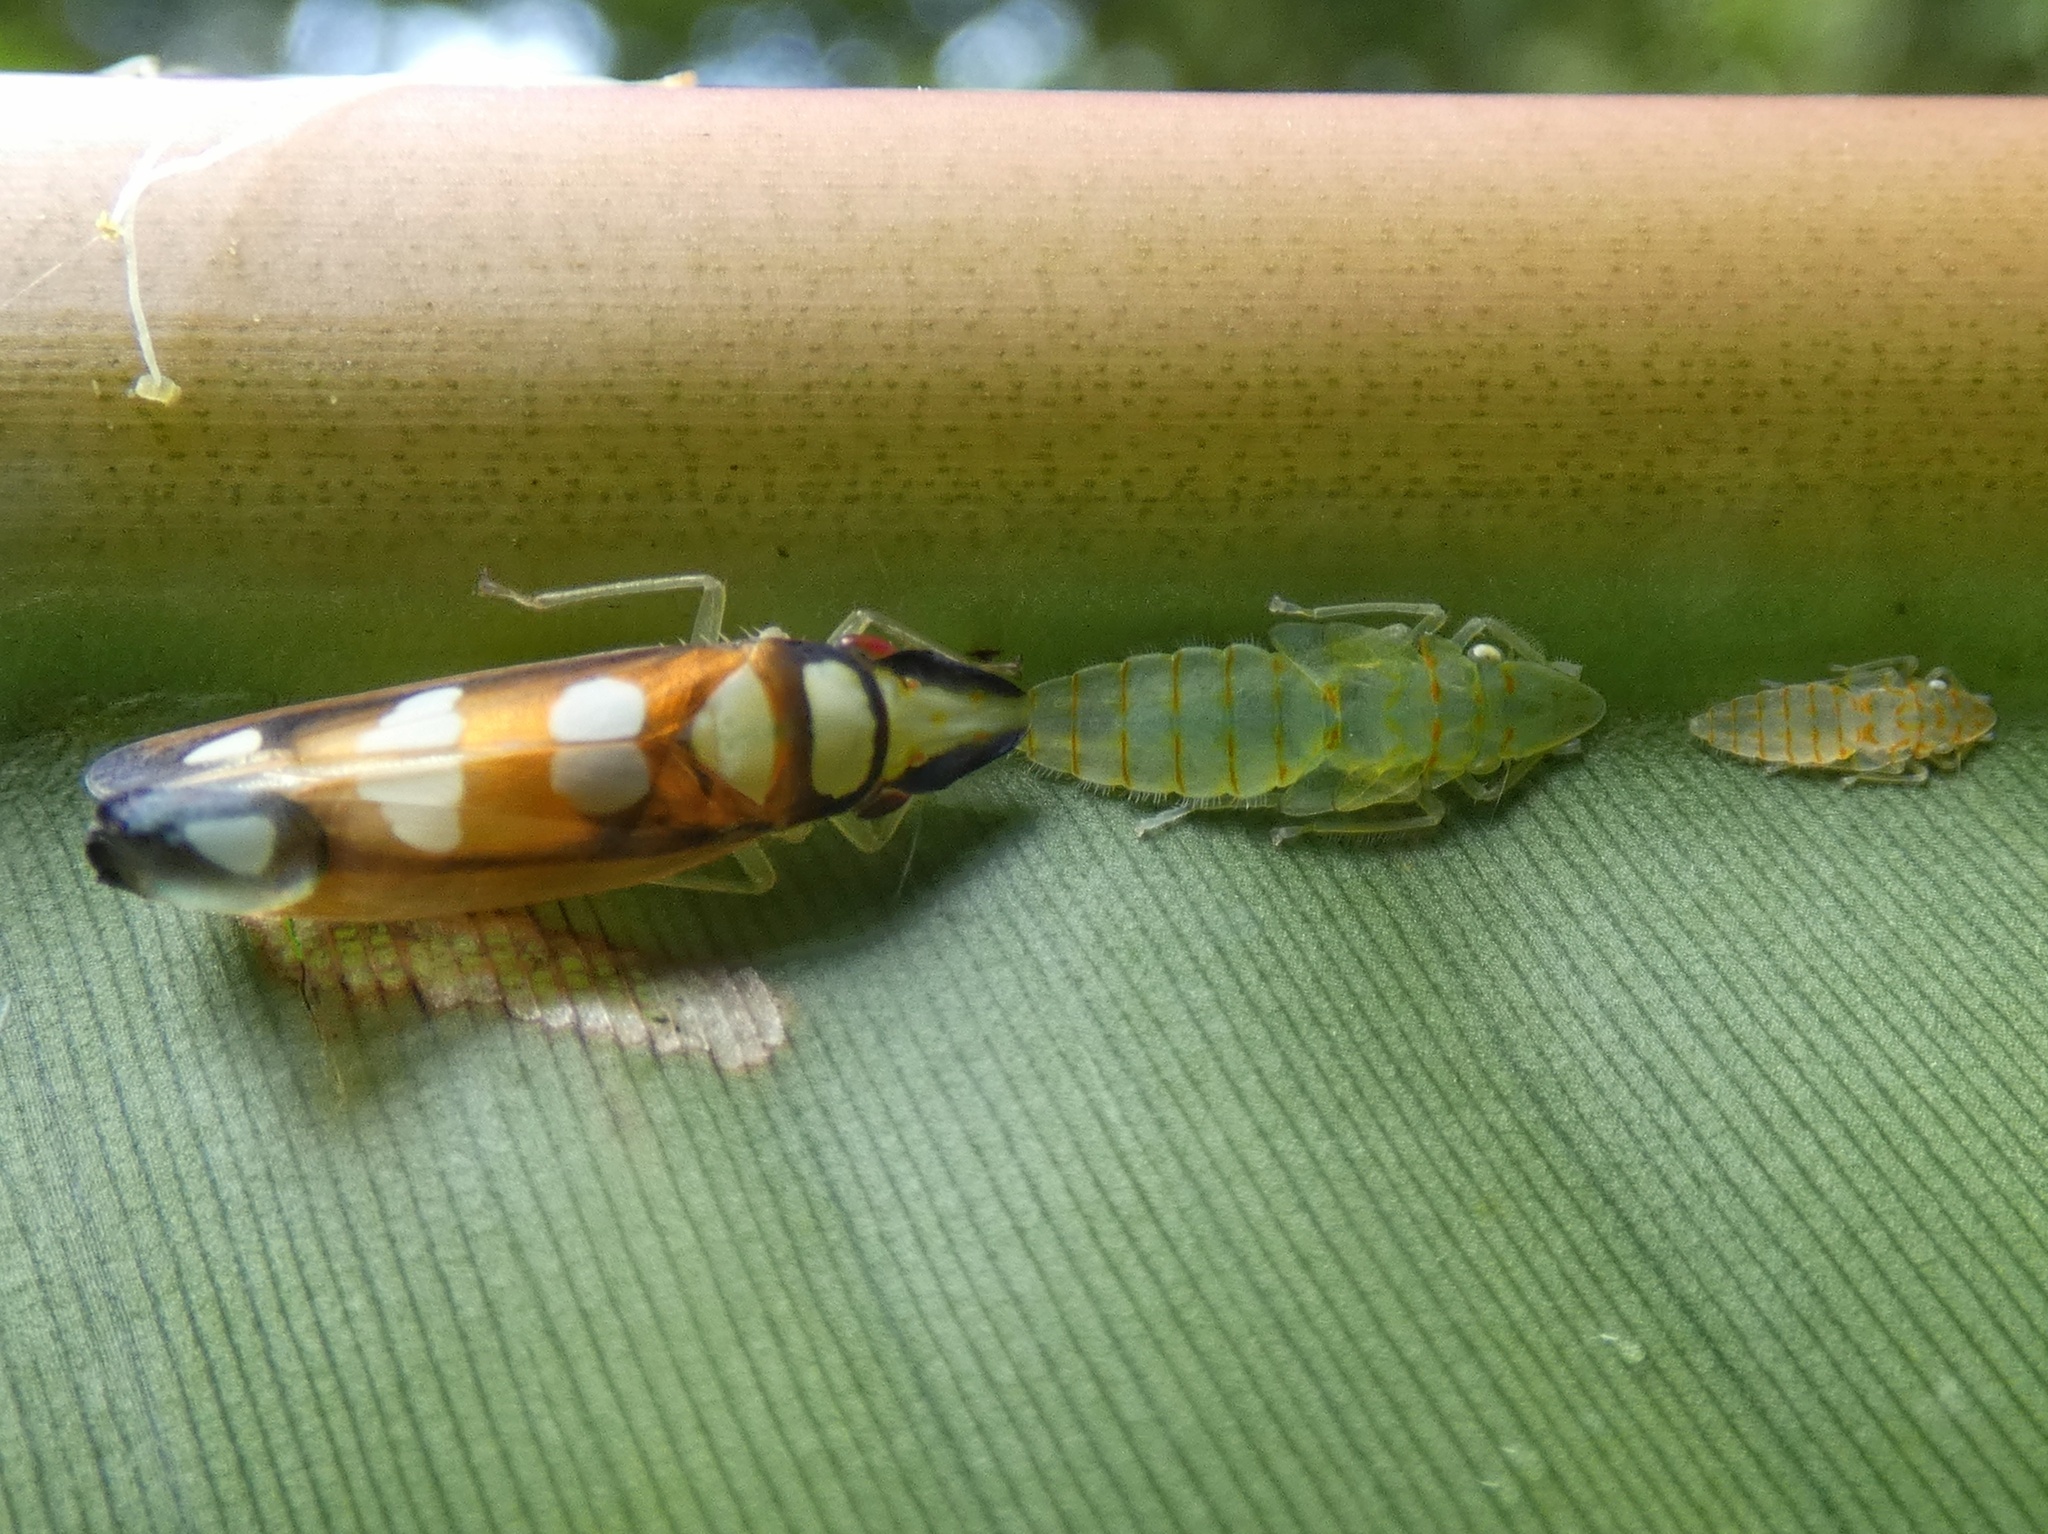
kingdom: Animalia
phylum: Arthropoda
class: Insecta
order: Hemiptera
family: Cicadellidae
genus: Platygonia
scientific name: Platygonia spatulata
